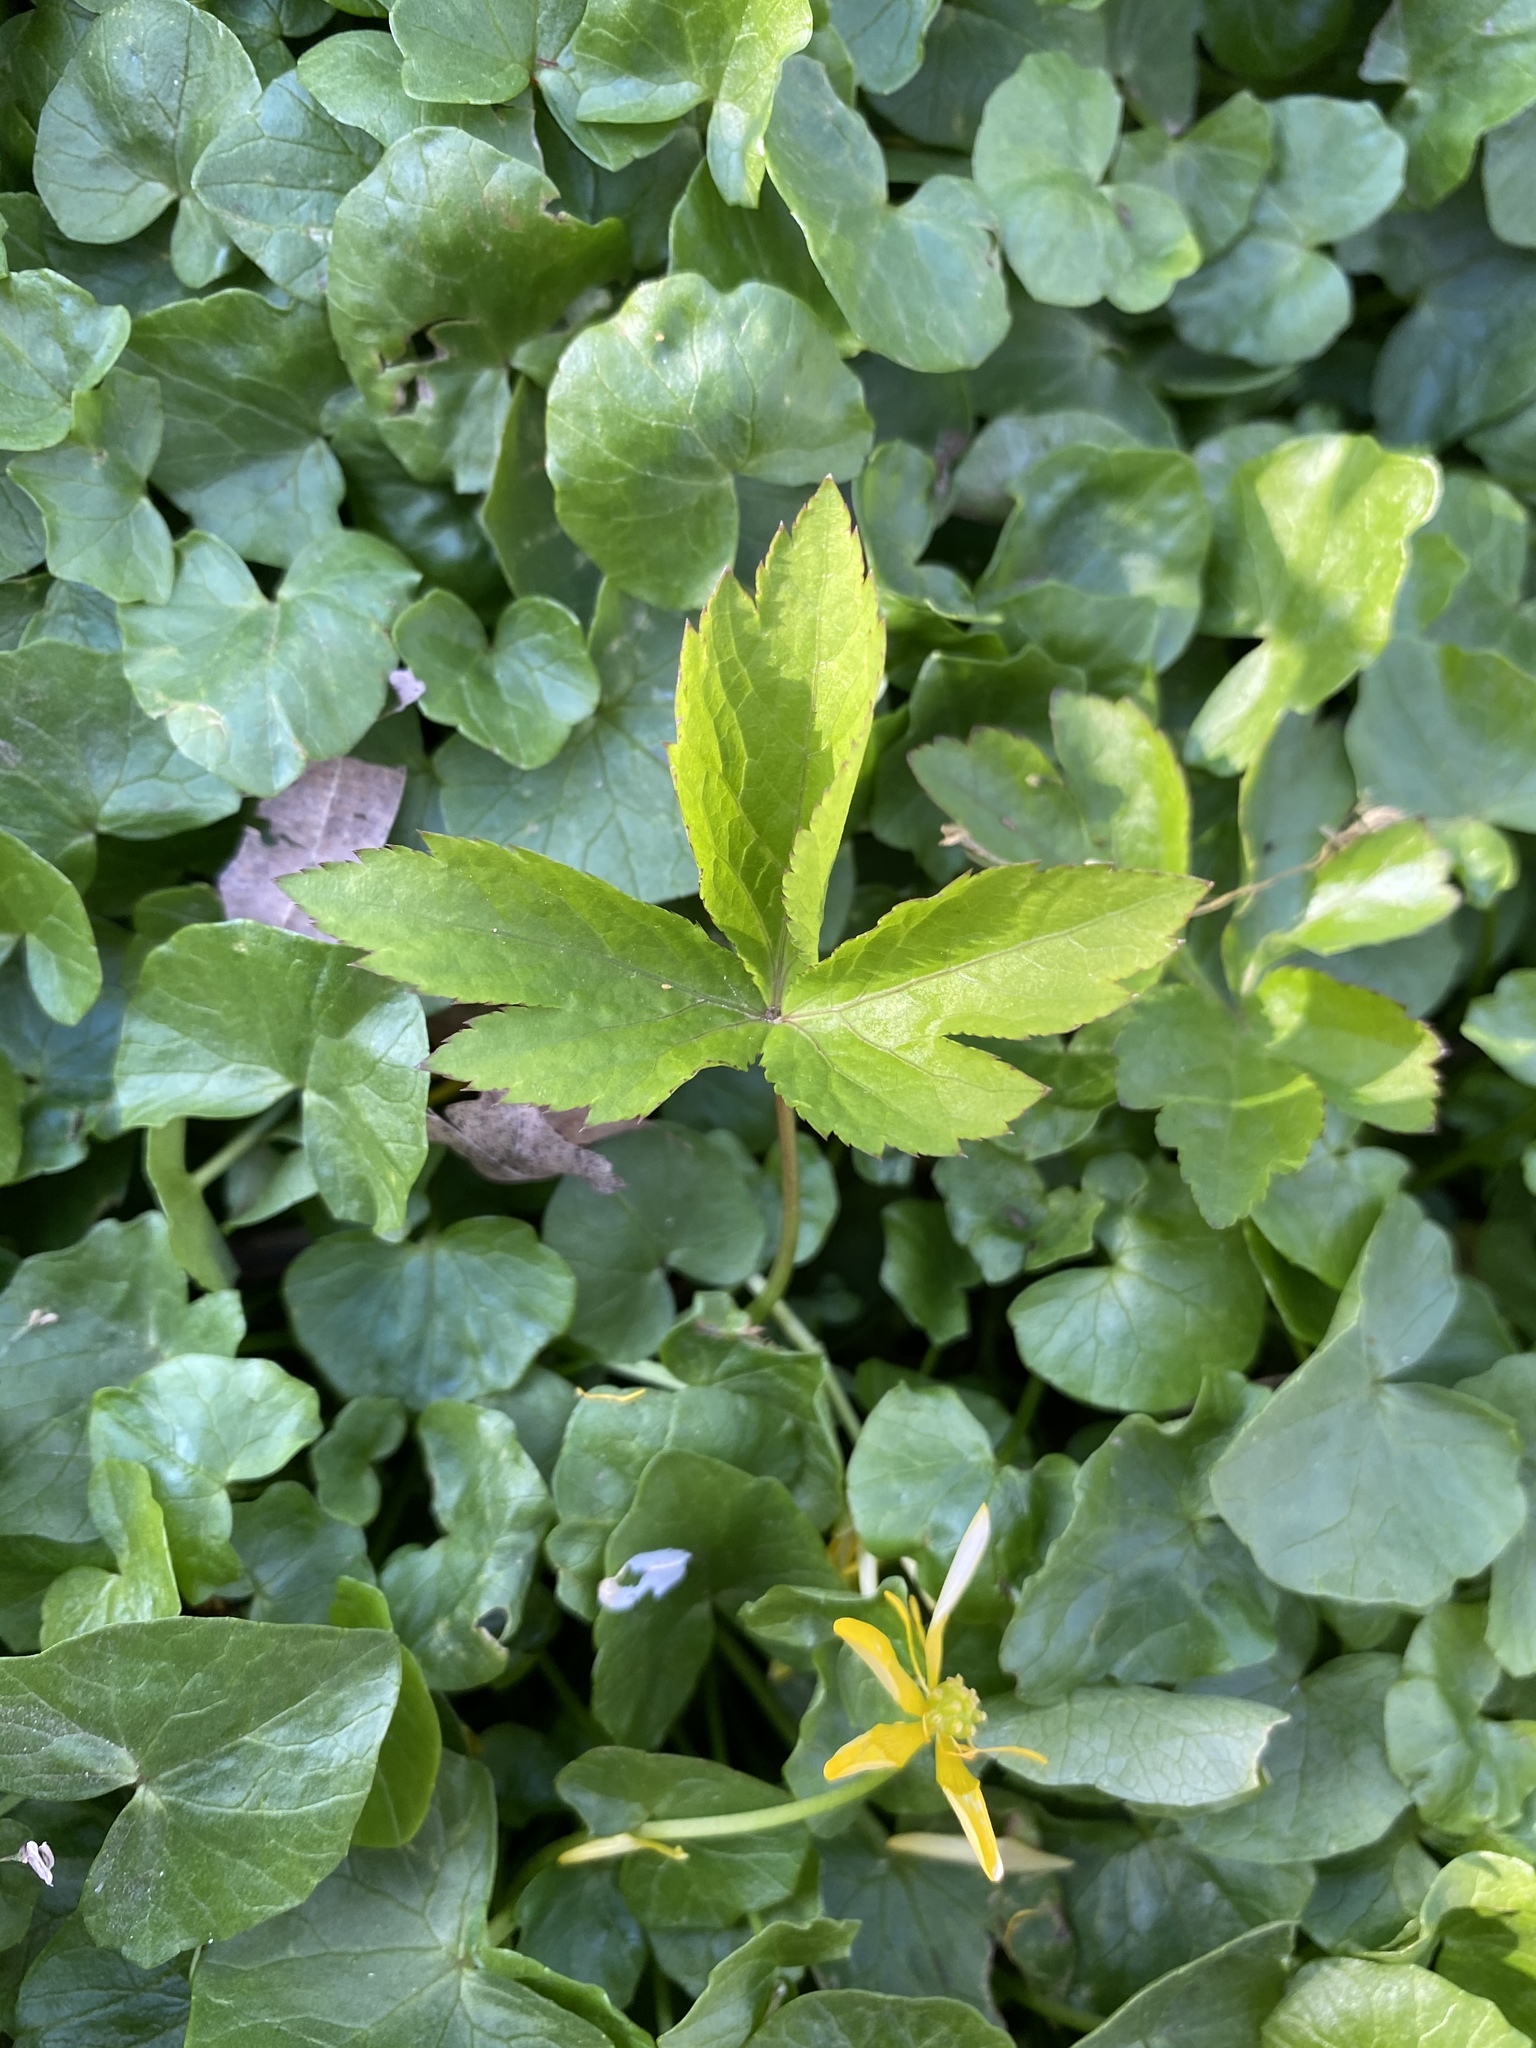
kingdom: Plantae
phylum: Tracheophyta
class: Magnoliopsida
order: Apiales
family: Apiaceae
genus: Cryptotaenia
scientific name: Cryptotaenia canadensis
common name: Honewort
